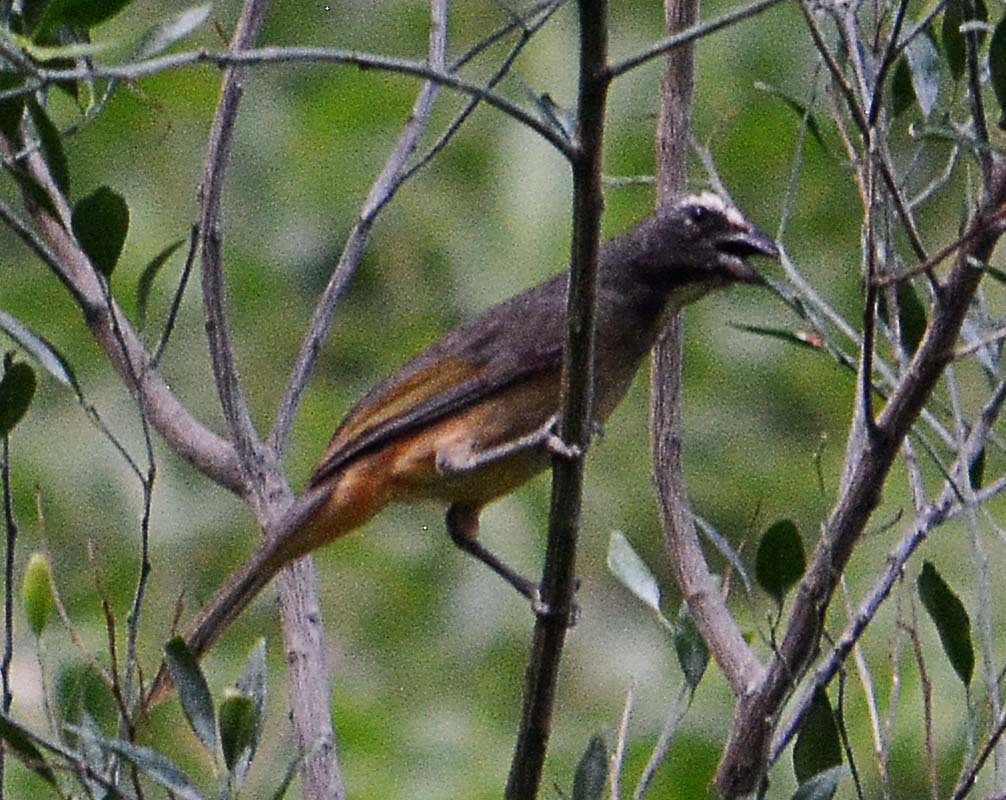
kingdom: Animalia
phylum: Chordata
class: Aves
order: Passeriformes
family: Thraupidae
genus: Saltator
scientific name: Saltator grandis
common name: Cinnamon-bellied saltator
